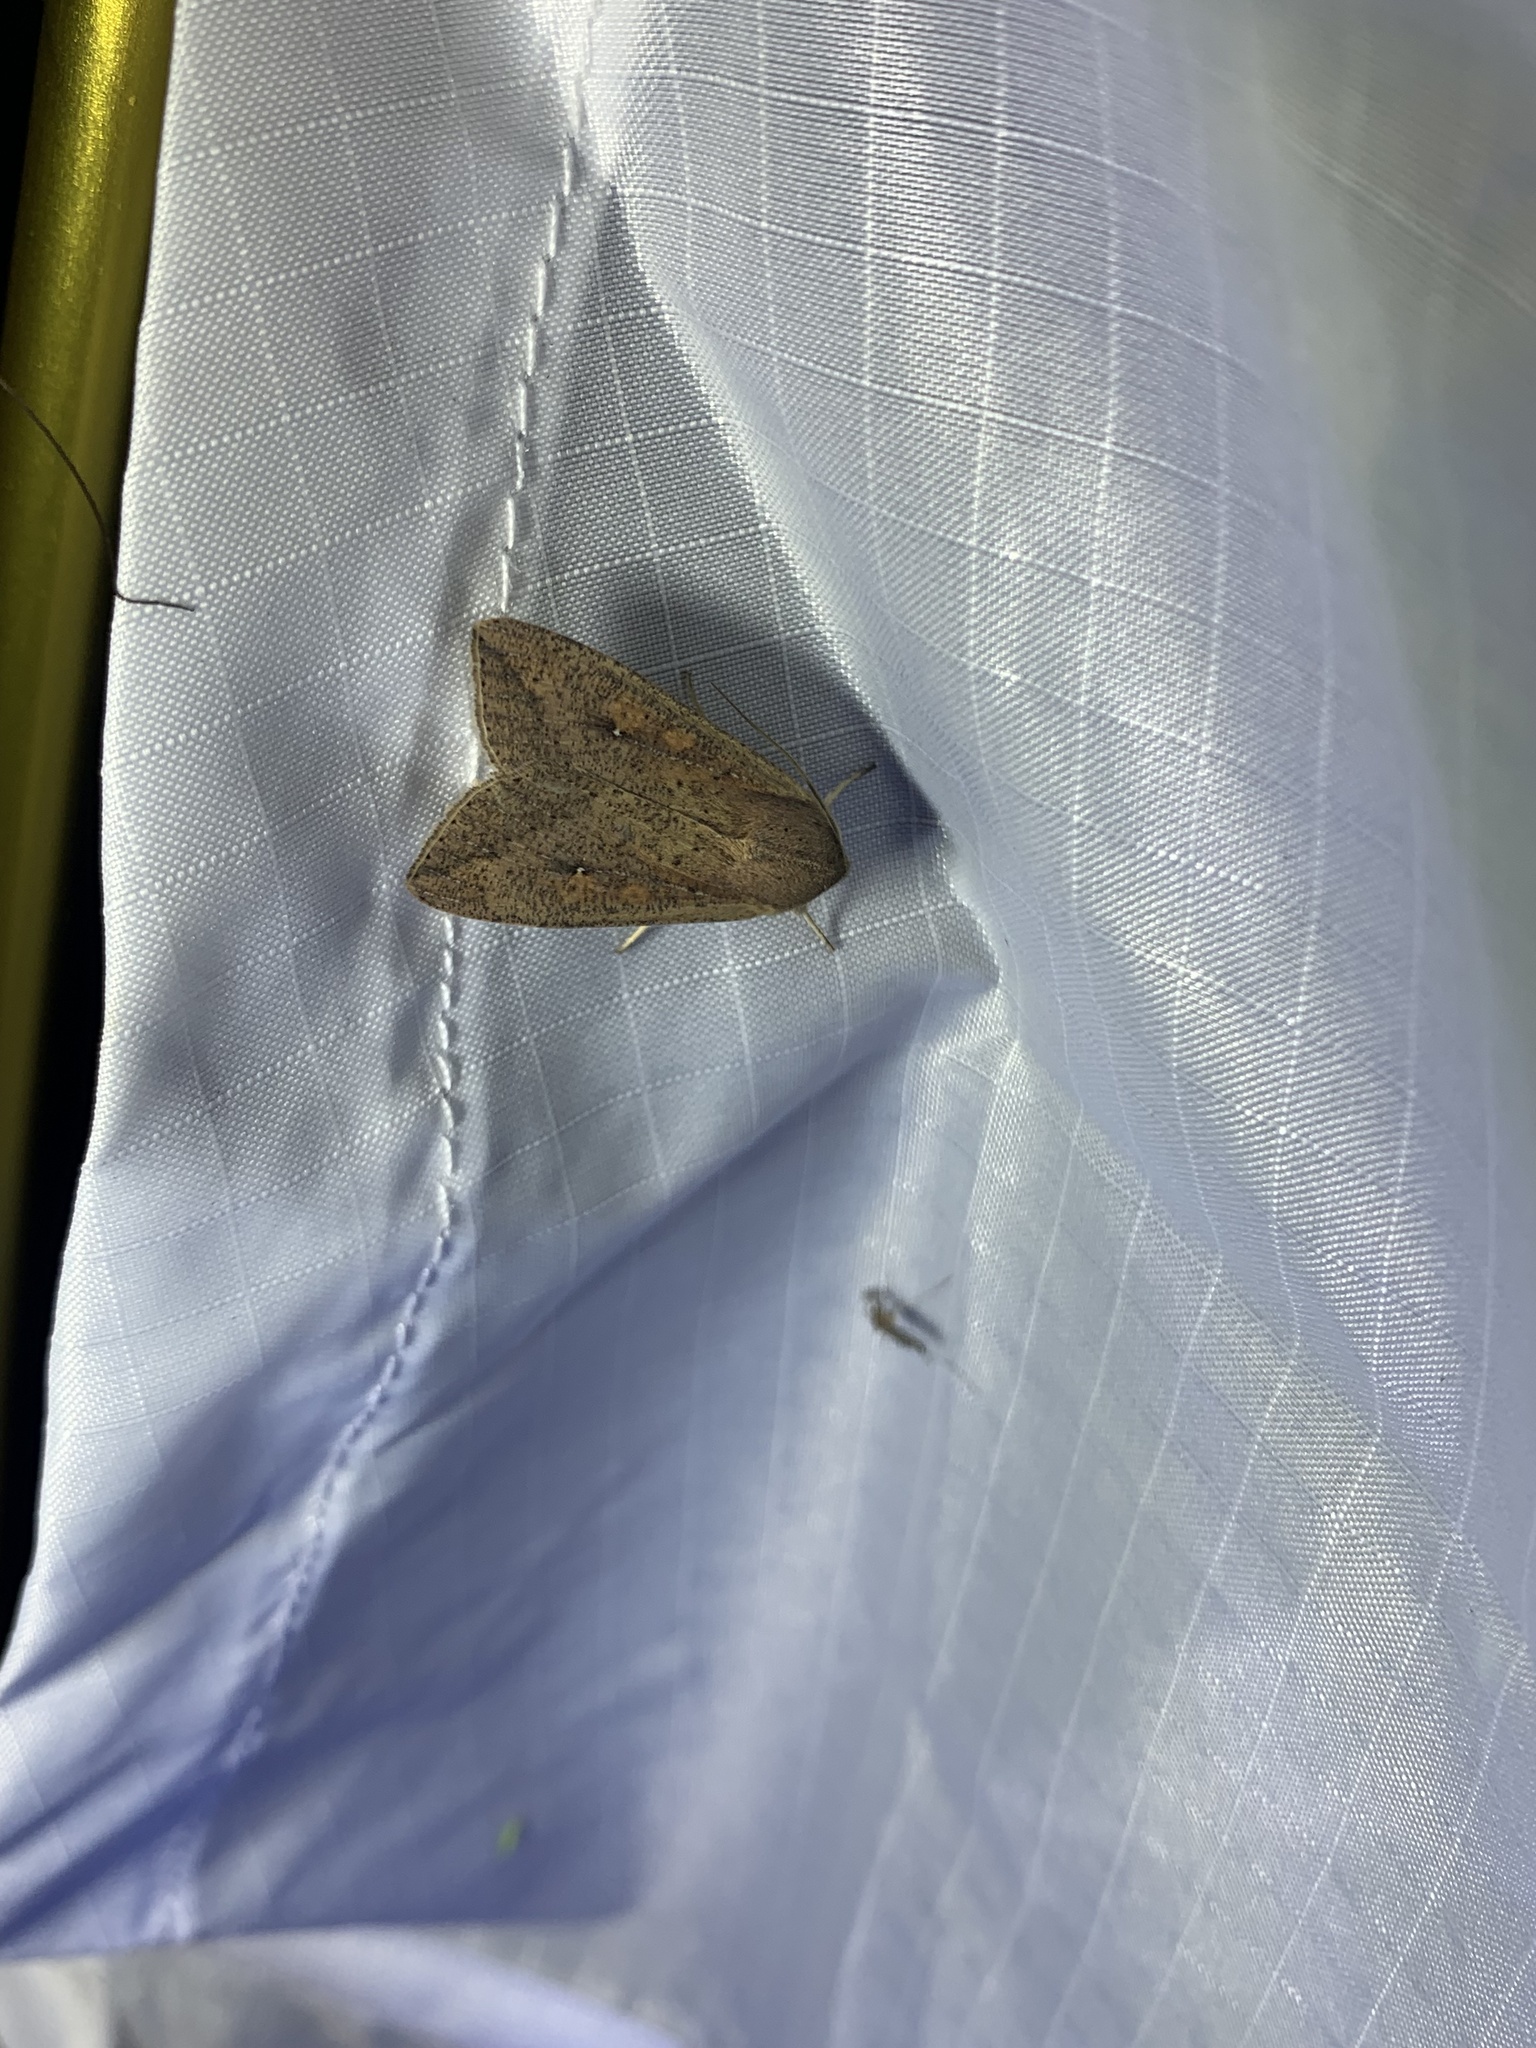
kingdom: Animalia
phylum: Arthropoda
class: Insecta
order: Lepidoptera
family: Noctuidae
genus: Mythimna
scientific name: Mythimna unipuncta
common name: White-speck
